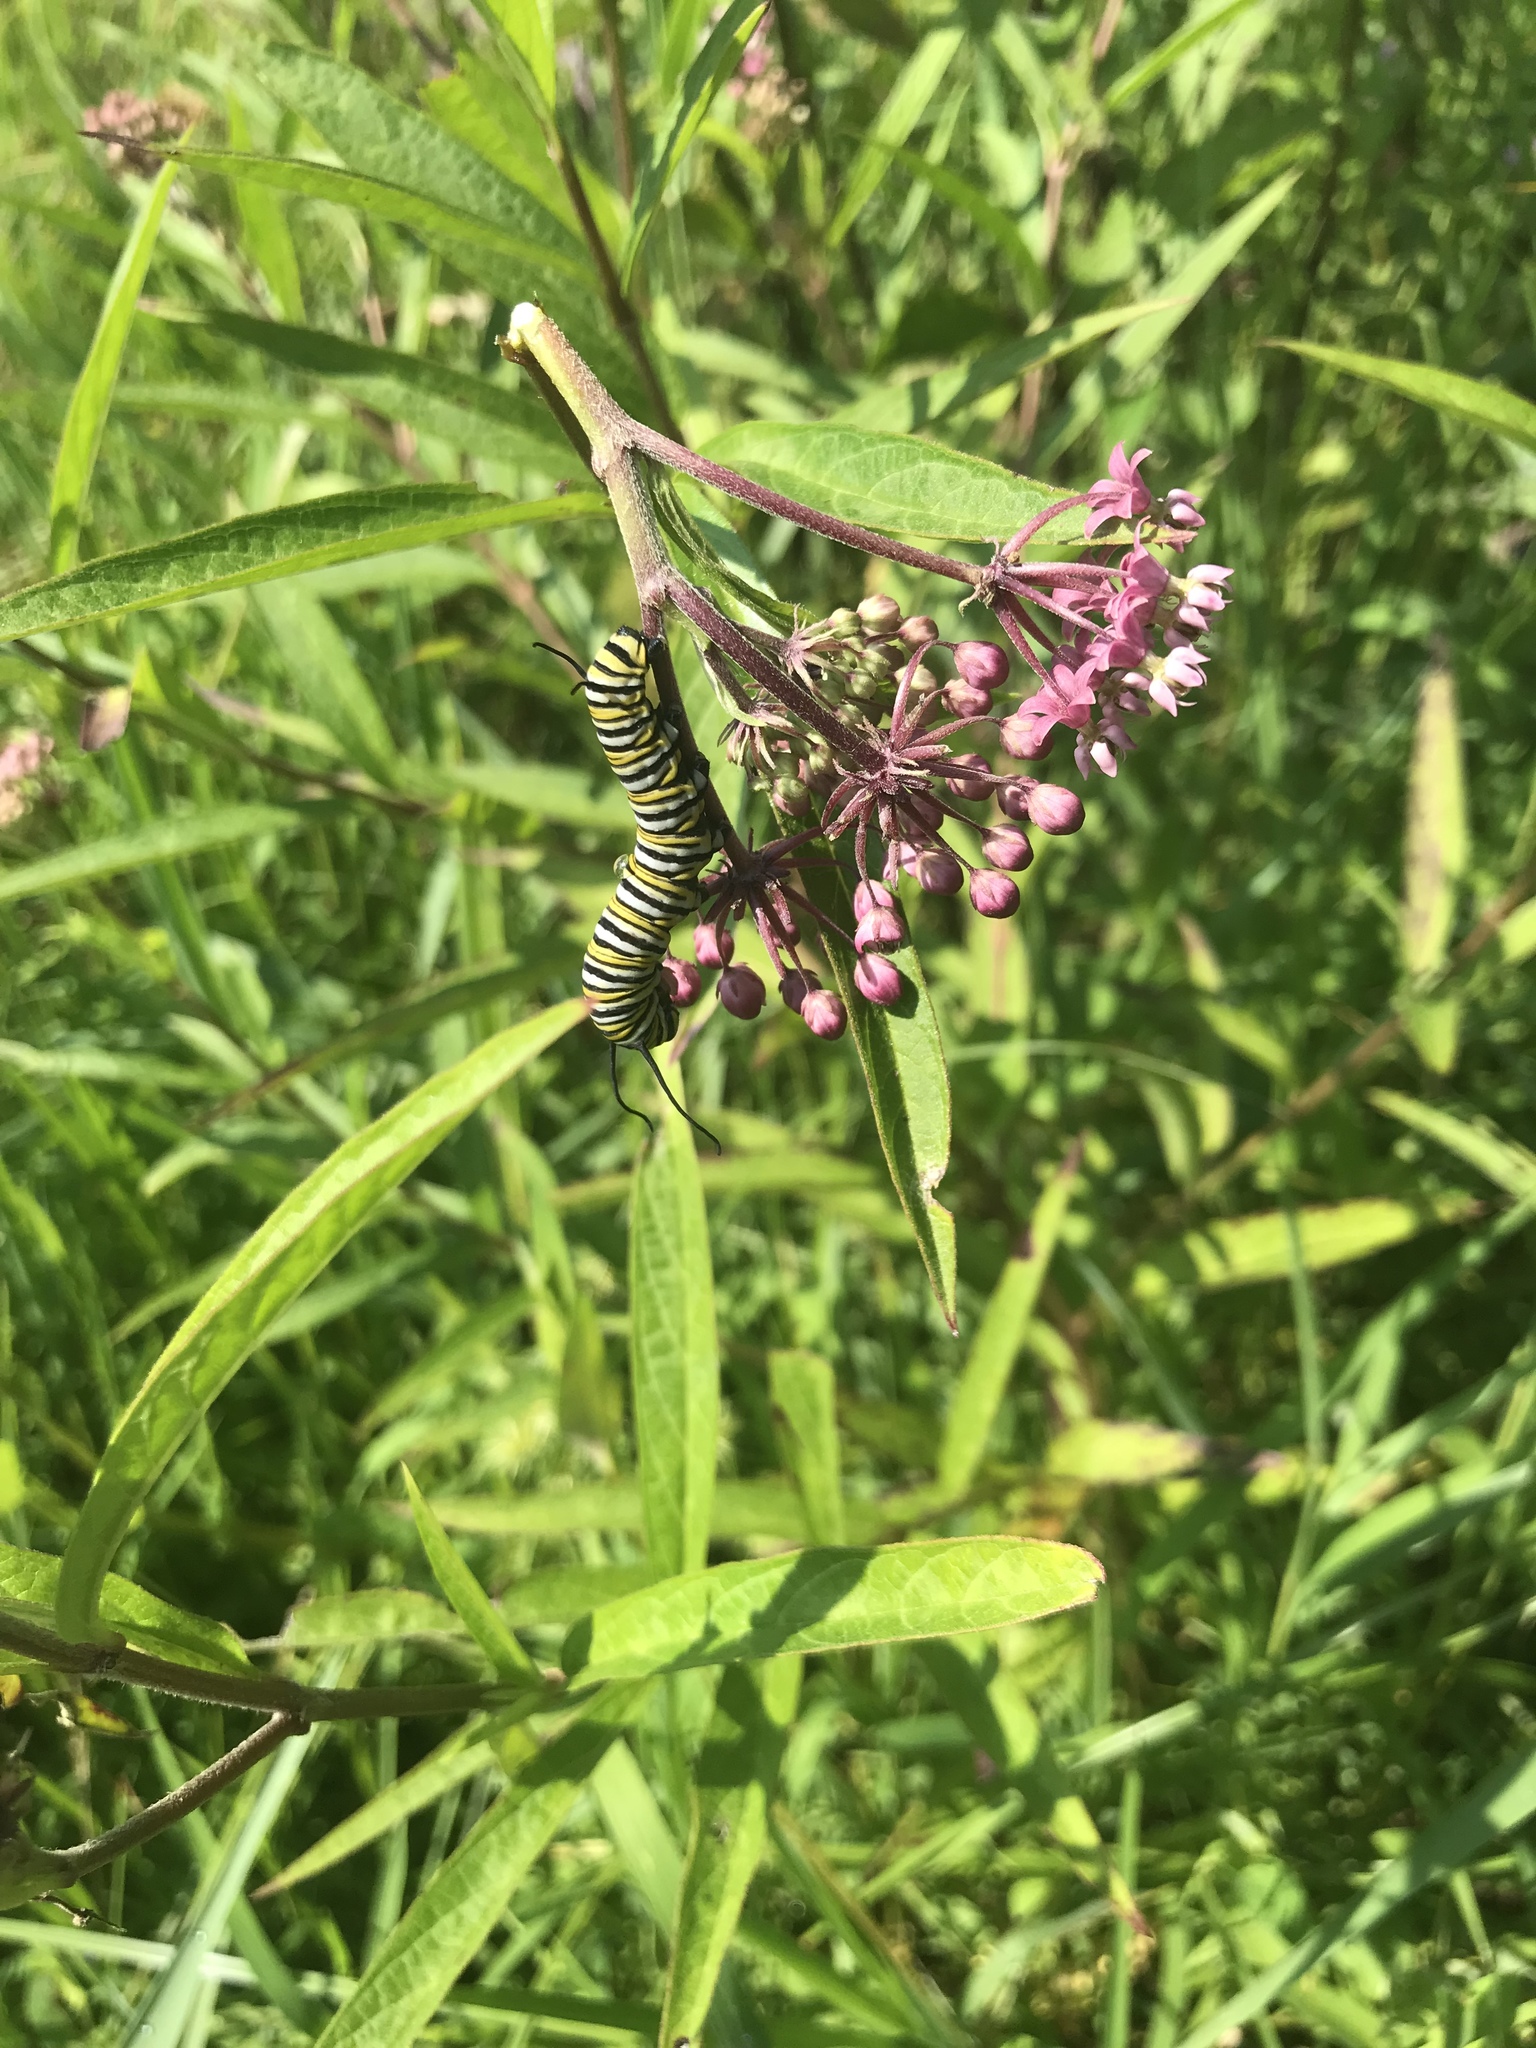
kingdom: Animalia
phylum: Arthropoda
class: Insecta
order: Lepidoptera
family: Nymphalidae
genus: Danaus
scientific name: Danaus plexippus
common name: Monarch
